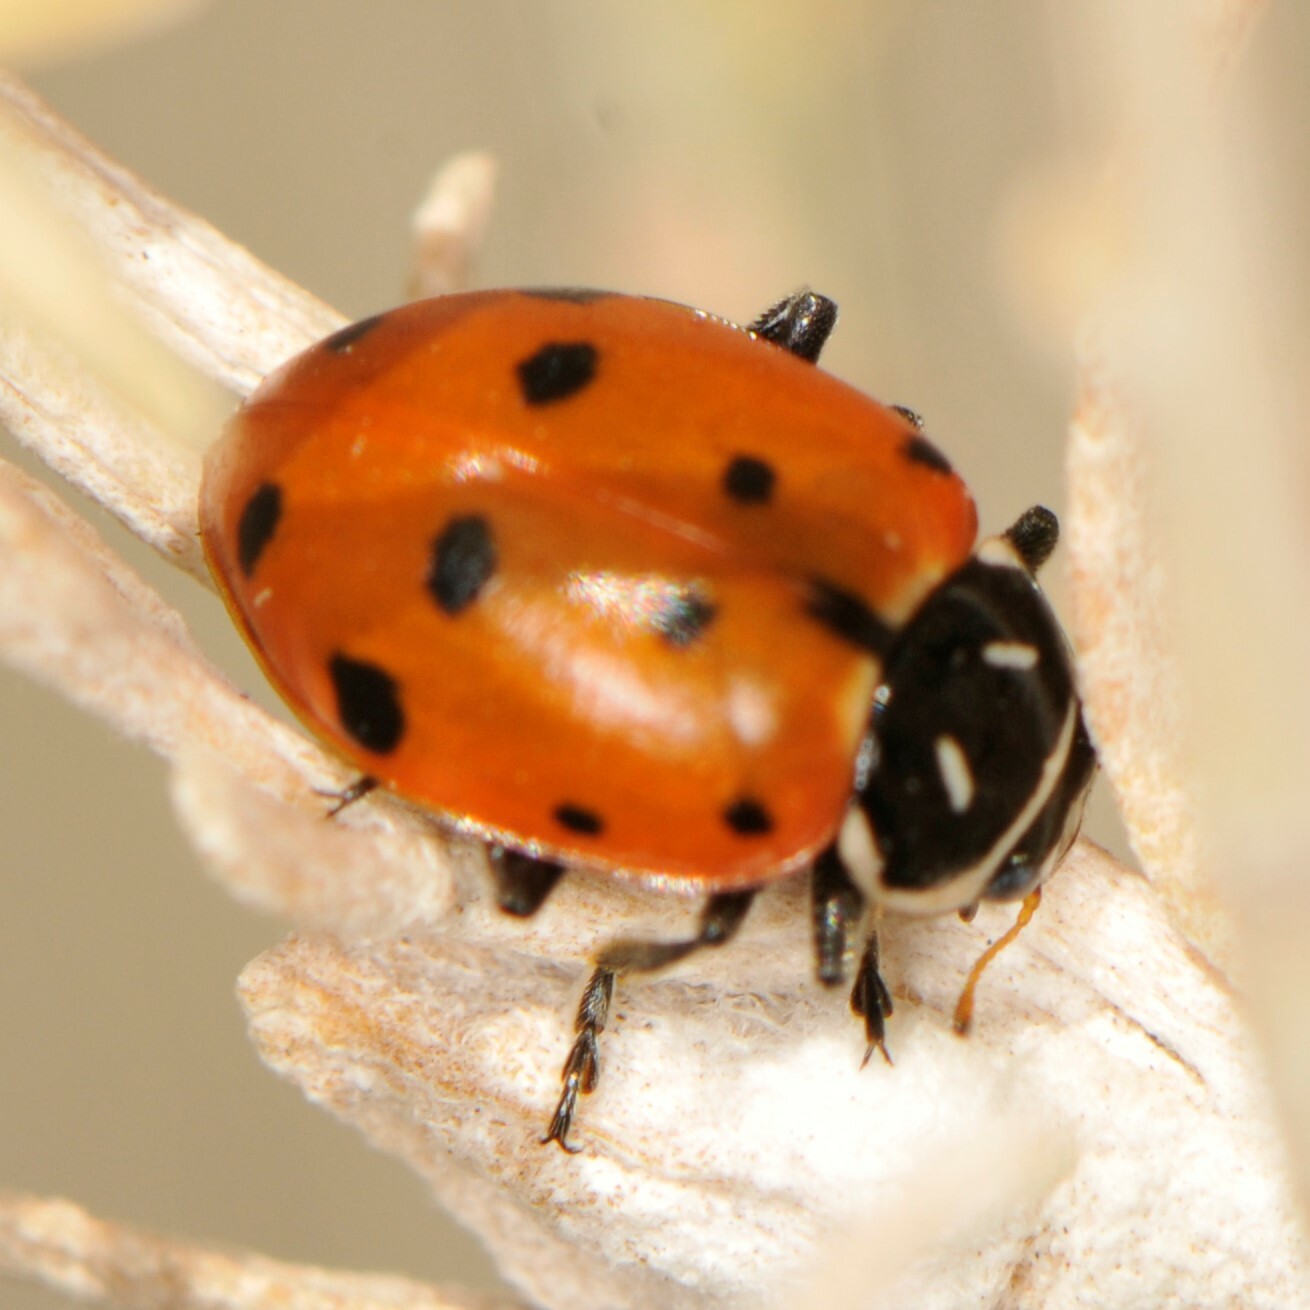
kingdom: Animalia
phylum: Arthropoda
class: Insecta
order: Coleoptera
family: Coccinellidae
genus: Hippodamia
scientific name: Hippodamia convergens
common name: Convergent lady beetle
